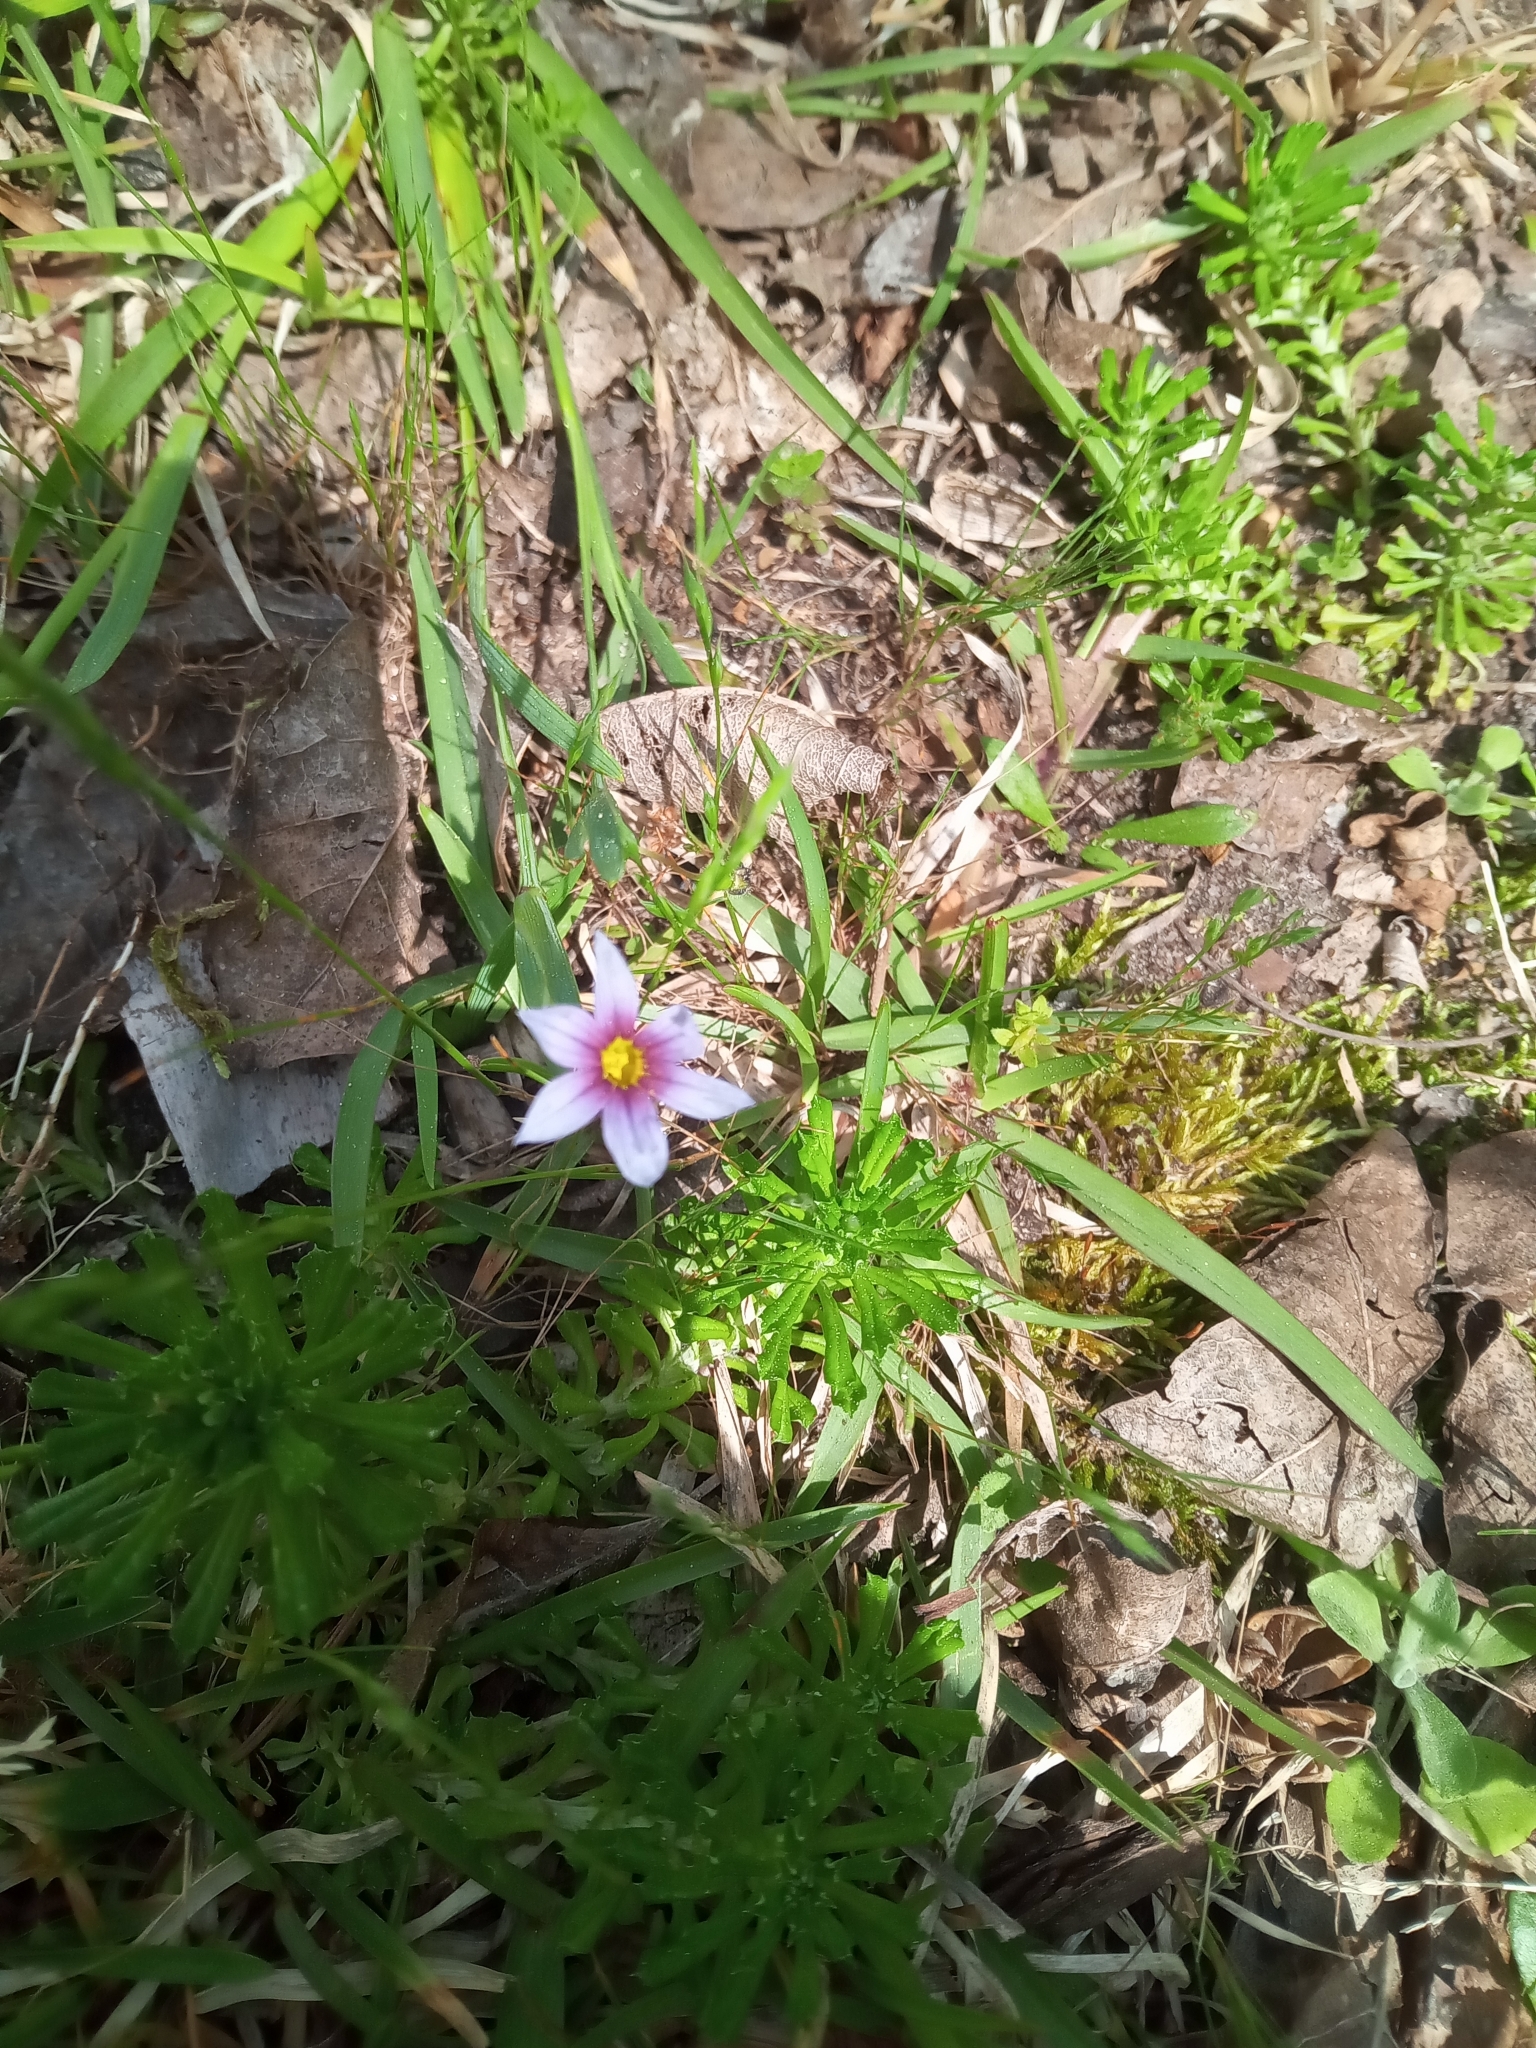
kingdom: Plantae
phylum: Tracheophyta
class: Liliopsida
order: Asparagales
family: Iridaceae
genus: Sisyrinchium
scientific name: Sisyrinchium micranthum
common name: Bermuda pigroot
